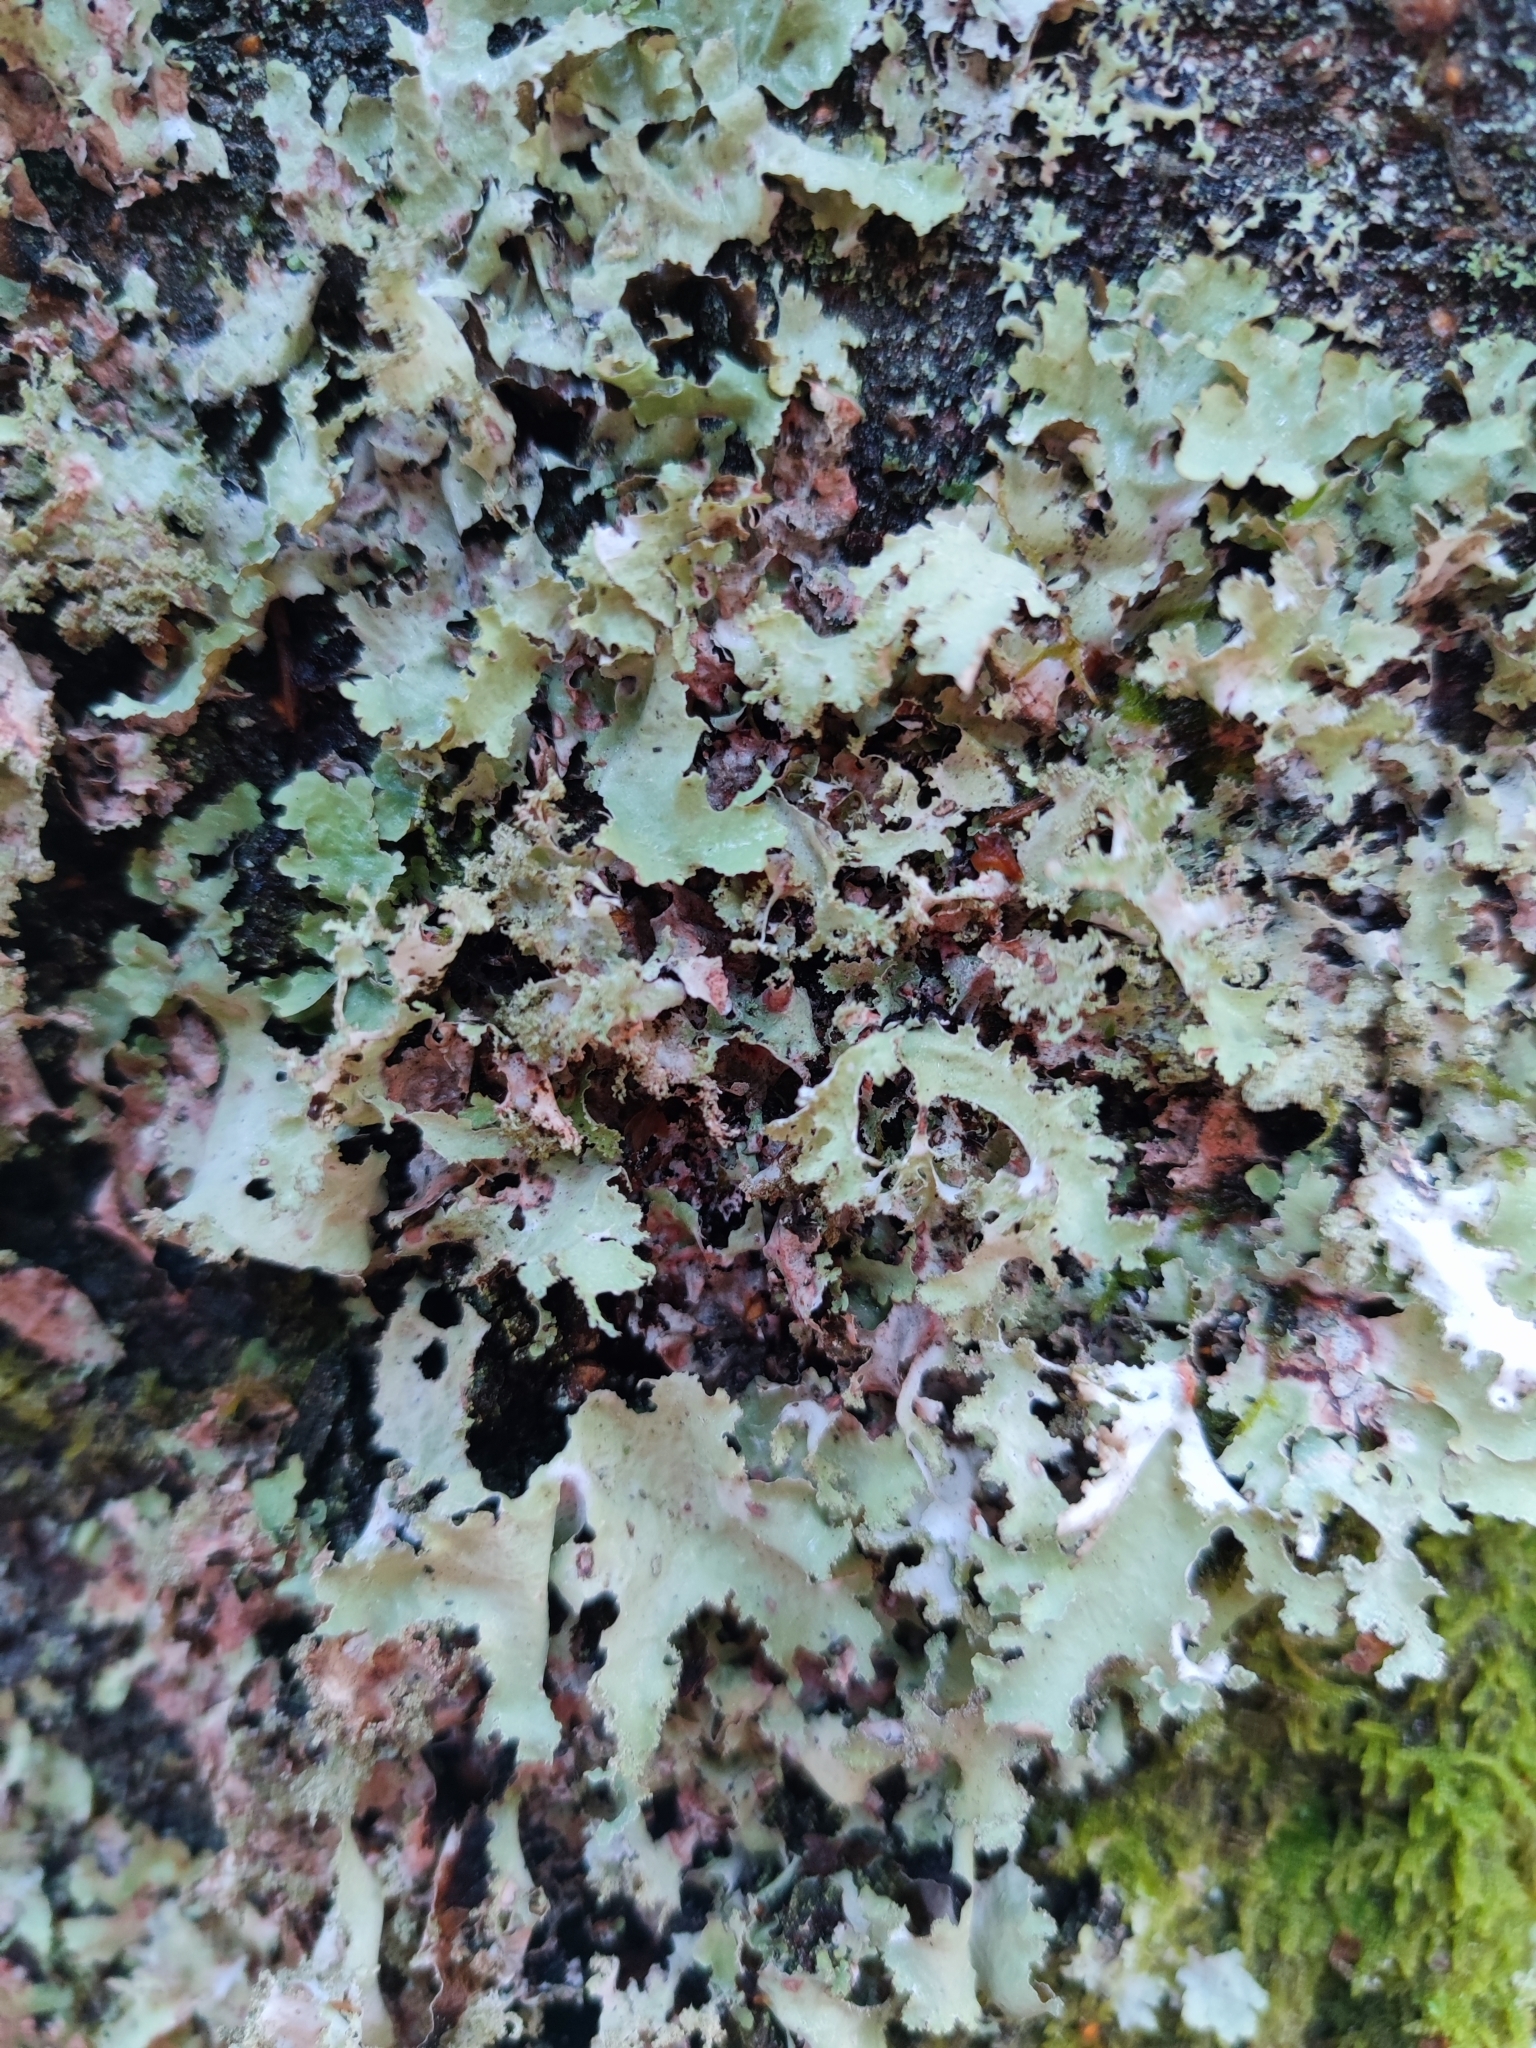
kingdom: Fungi
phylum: Ascomycota
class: Lecanoromycetes
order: Lecanorales
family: Parmeliaceae
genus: Platismatia
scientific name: Platismatia glauca
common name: Varied rag lichen
